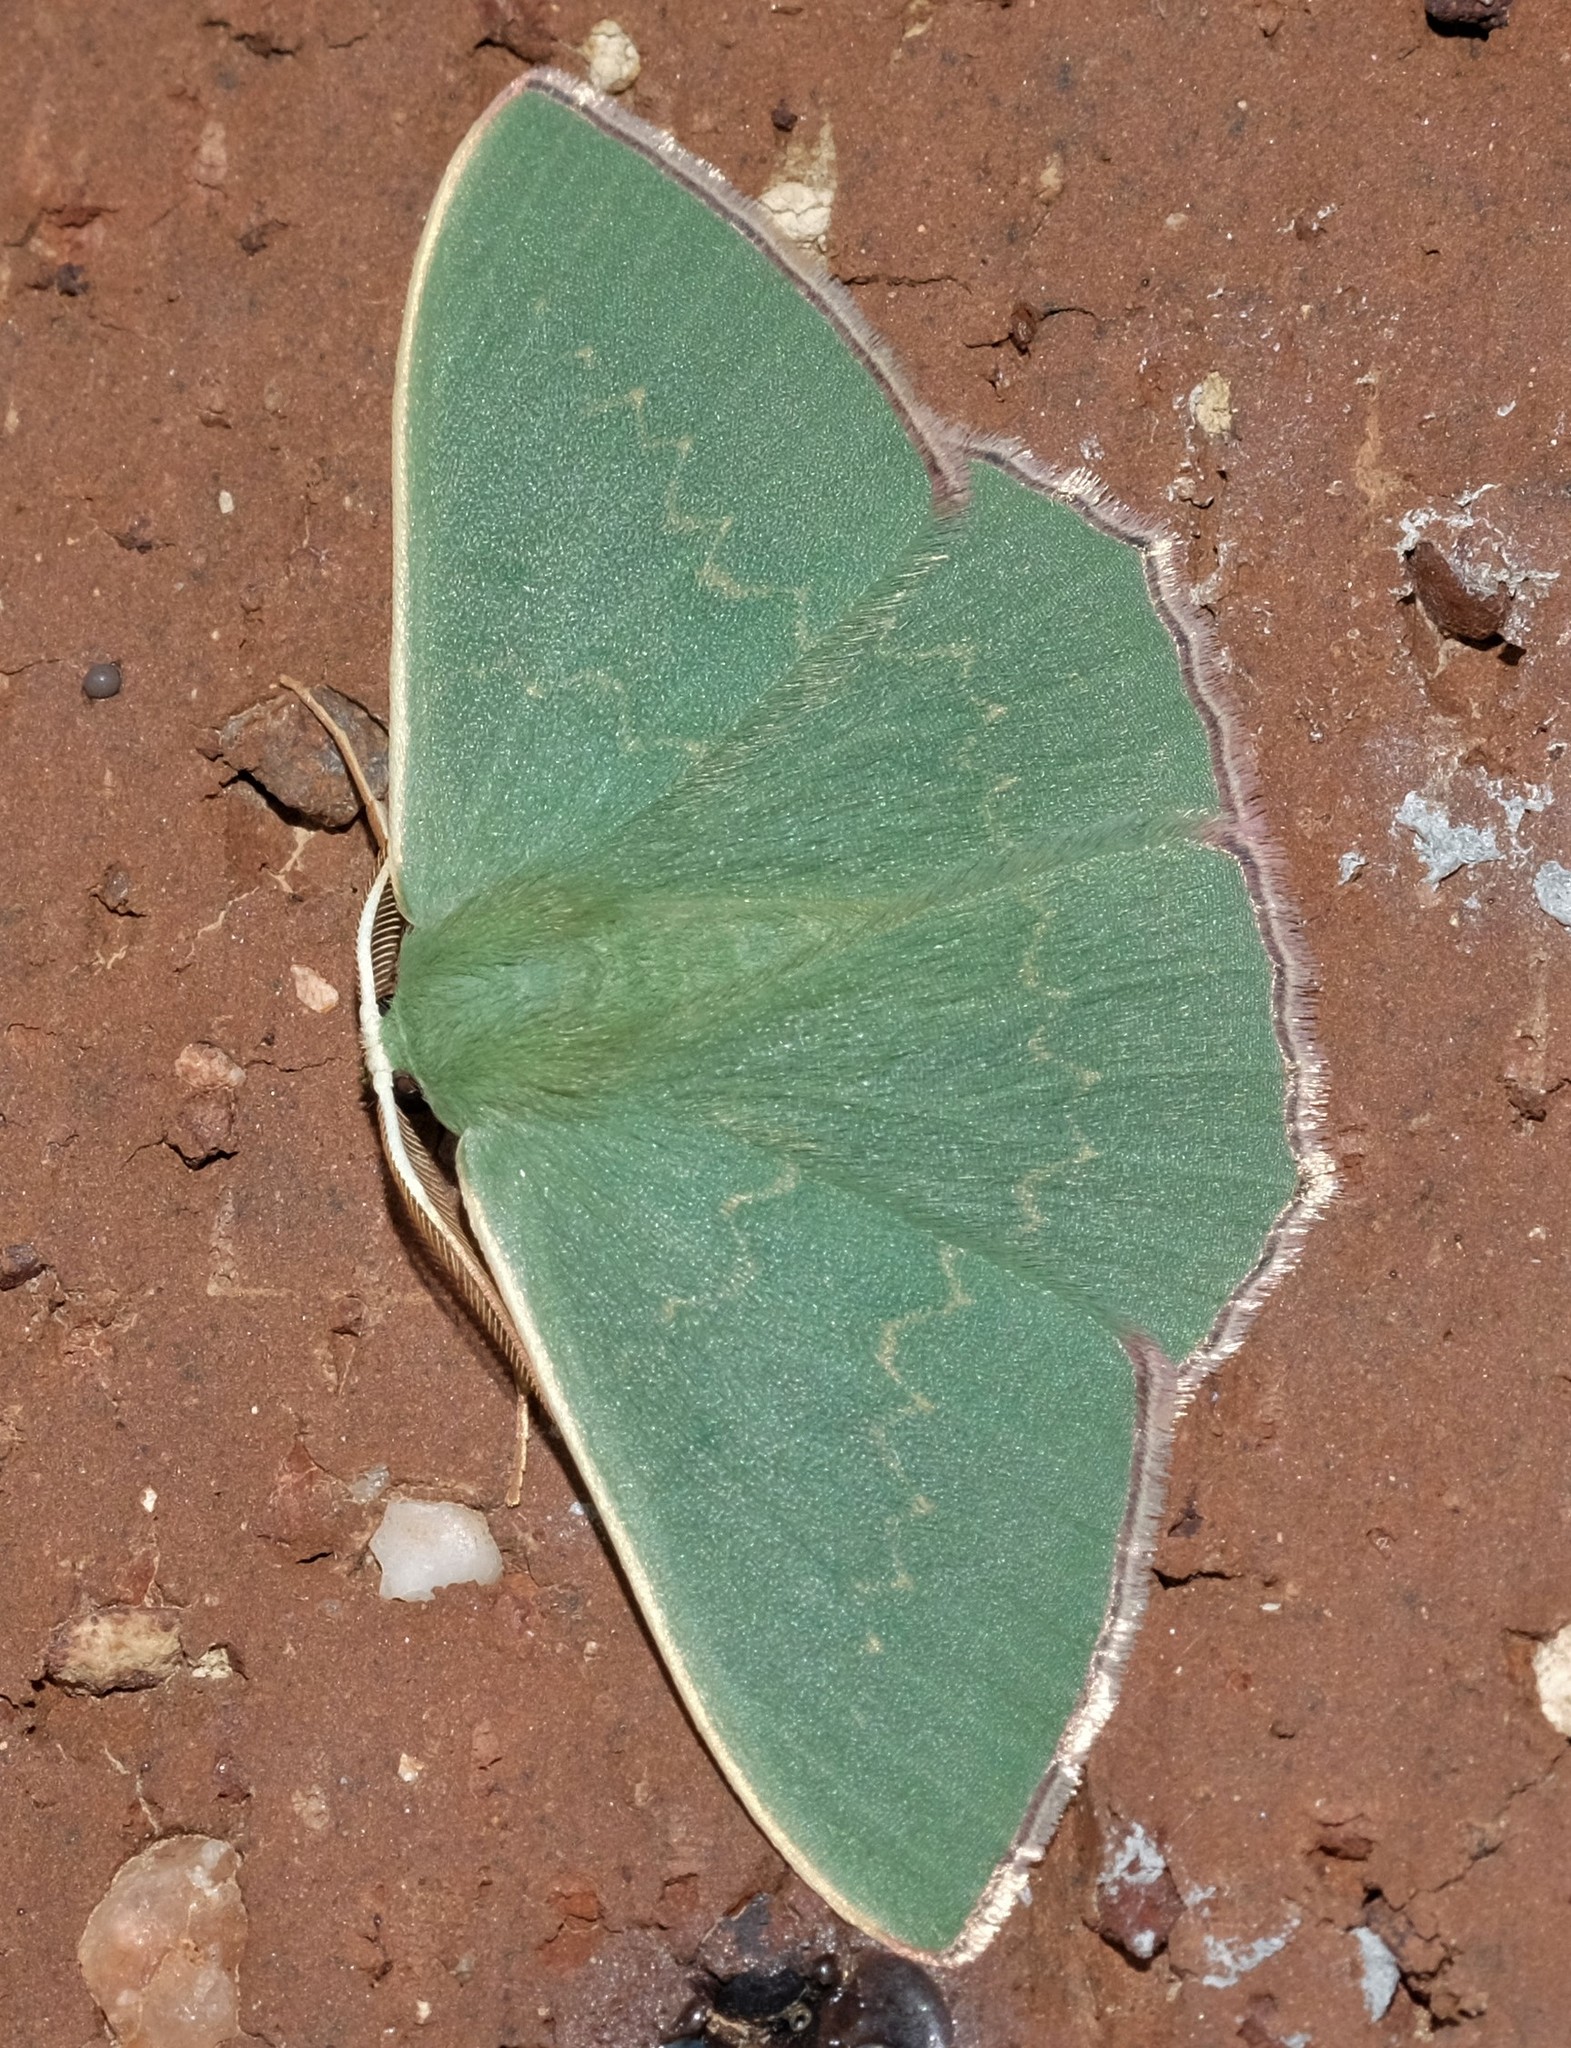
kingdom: Animalia
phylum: Arthropoda
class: Insecta
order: Lepidoptera
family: Geometridae
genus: Prasinocyma
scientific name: Prasinocyma semicrocea
